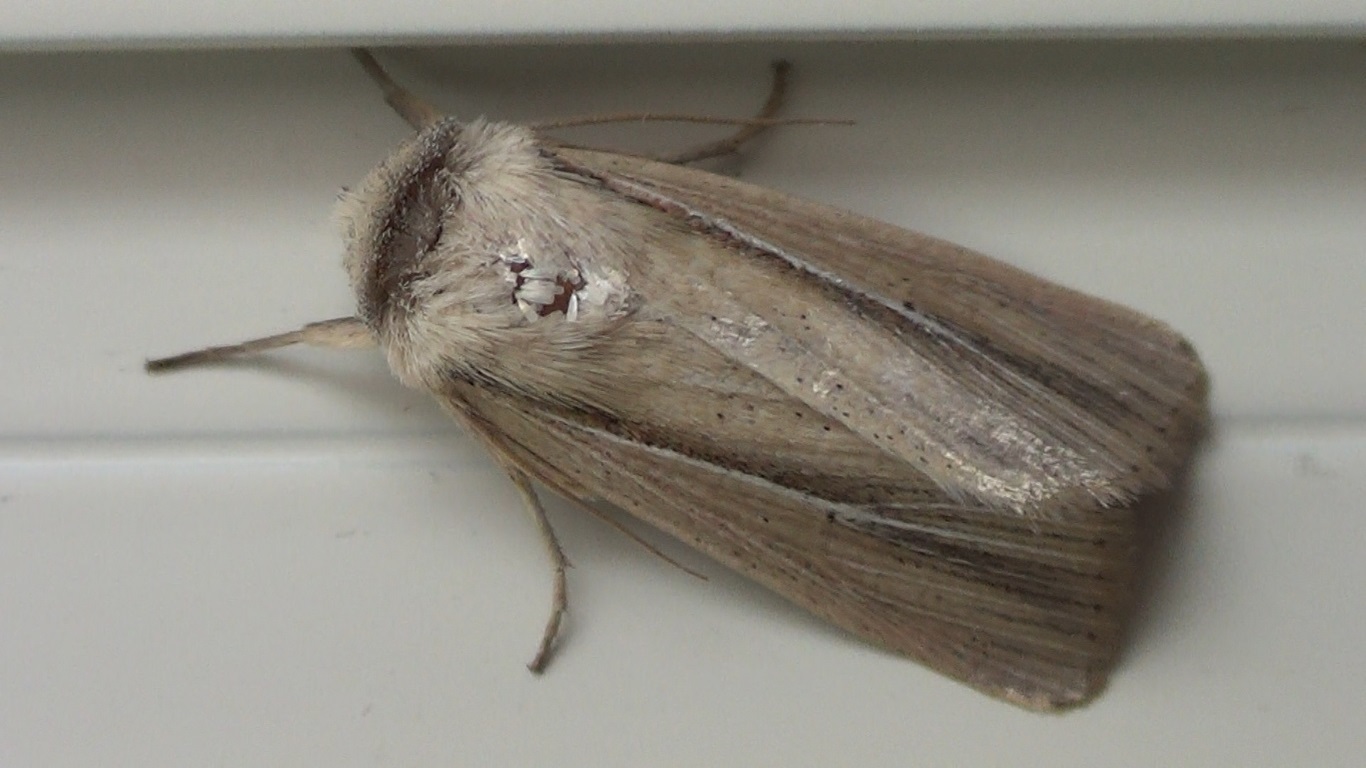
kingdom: Animalia
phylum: Arthropoda
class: Insecta
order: Lepidoptera
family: Noctuidae
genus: Mythimna
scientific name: Mythimna prominens
